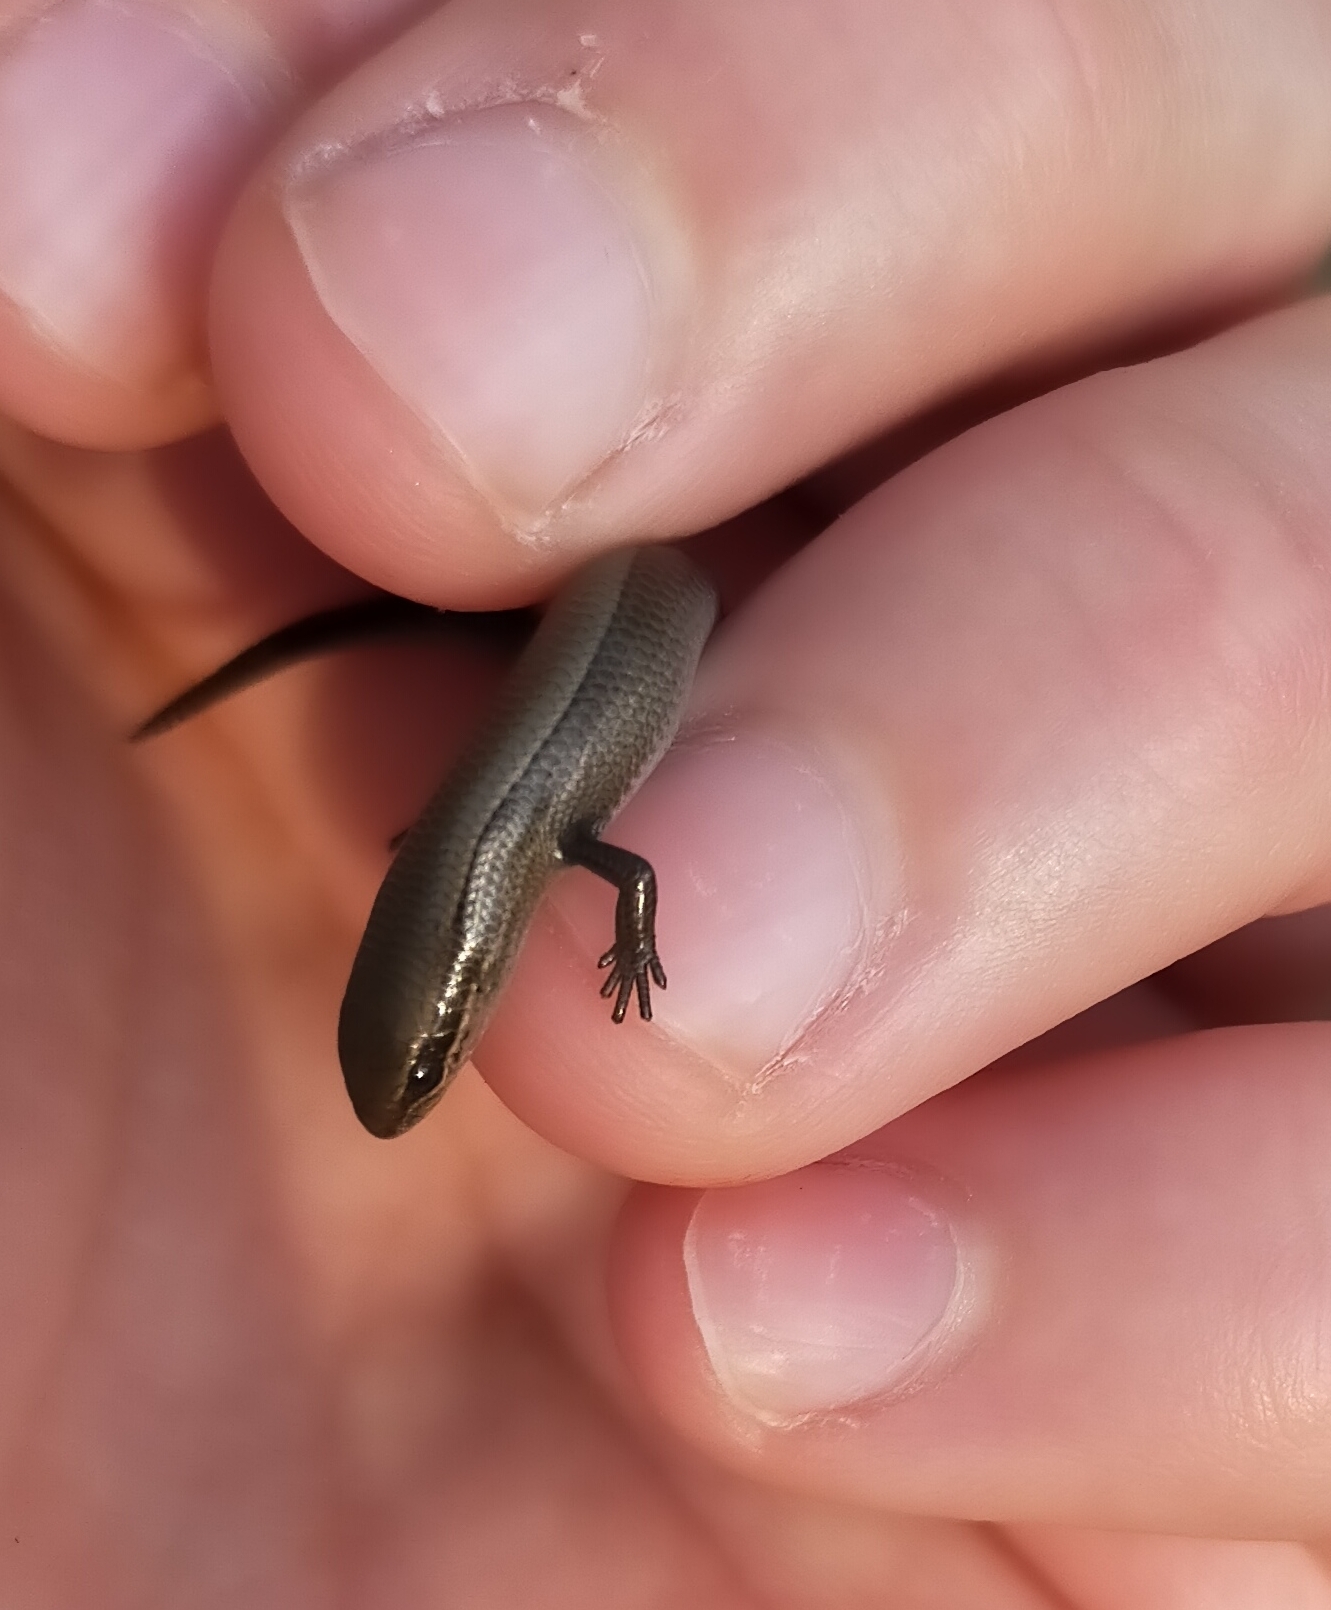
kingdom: Animalia
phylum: Chordata
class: Squamata
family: Scincidae
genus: Ablepharus
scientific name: Ablepharus kitaibelii
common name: Juniper skink
